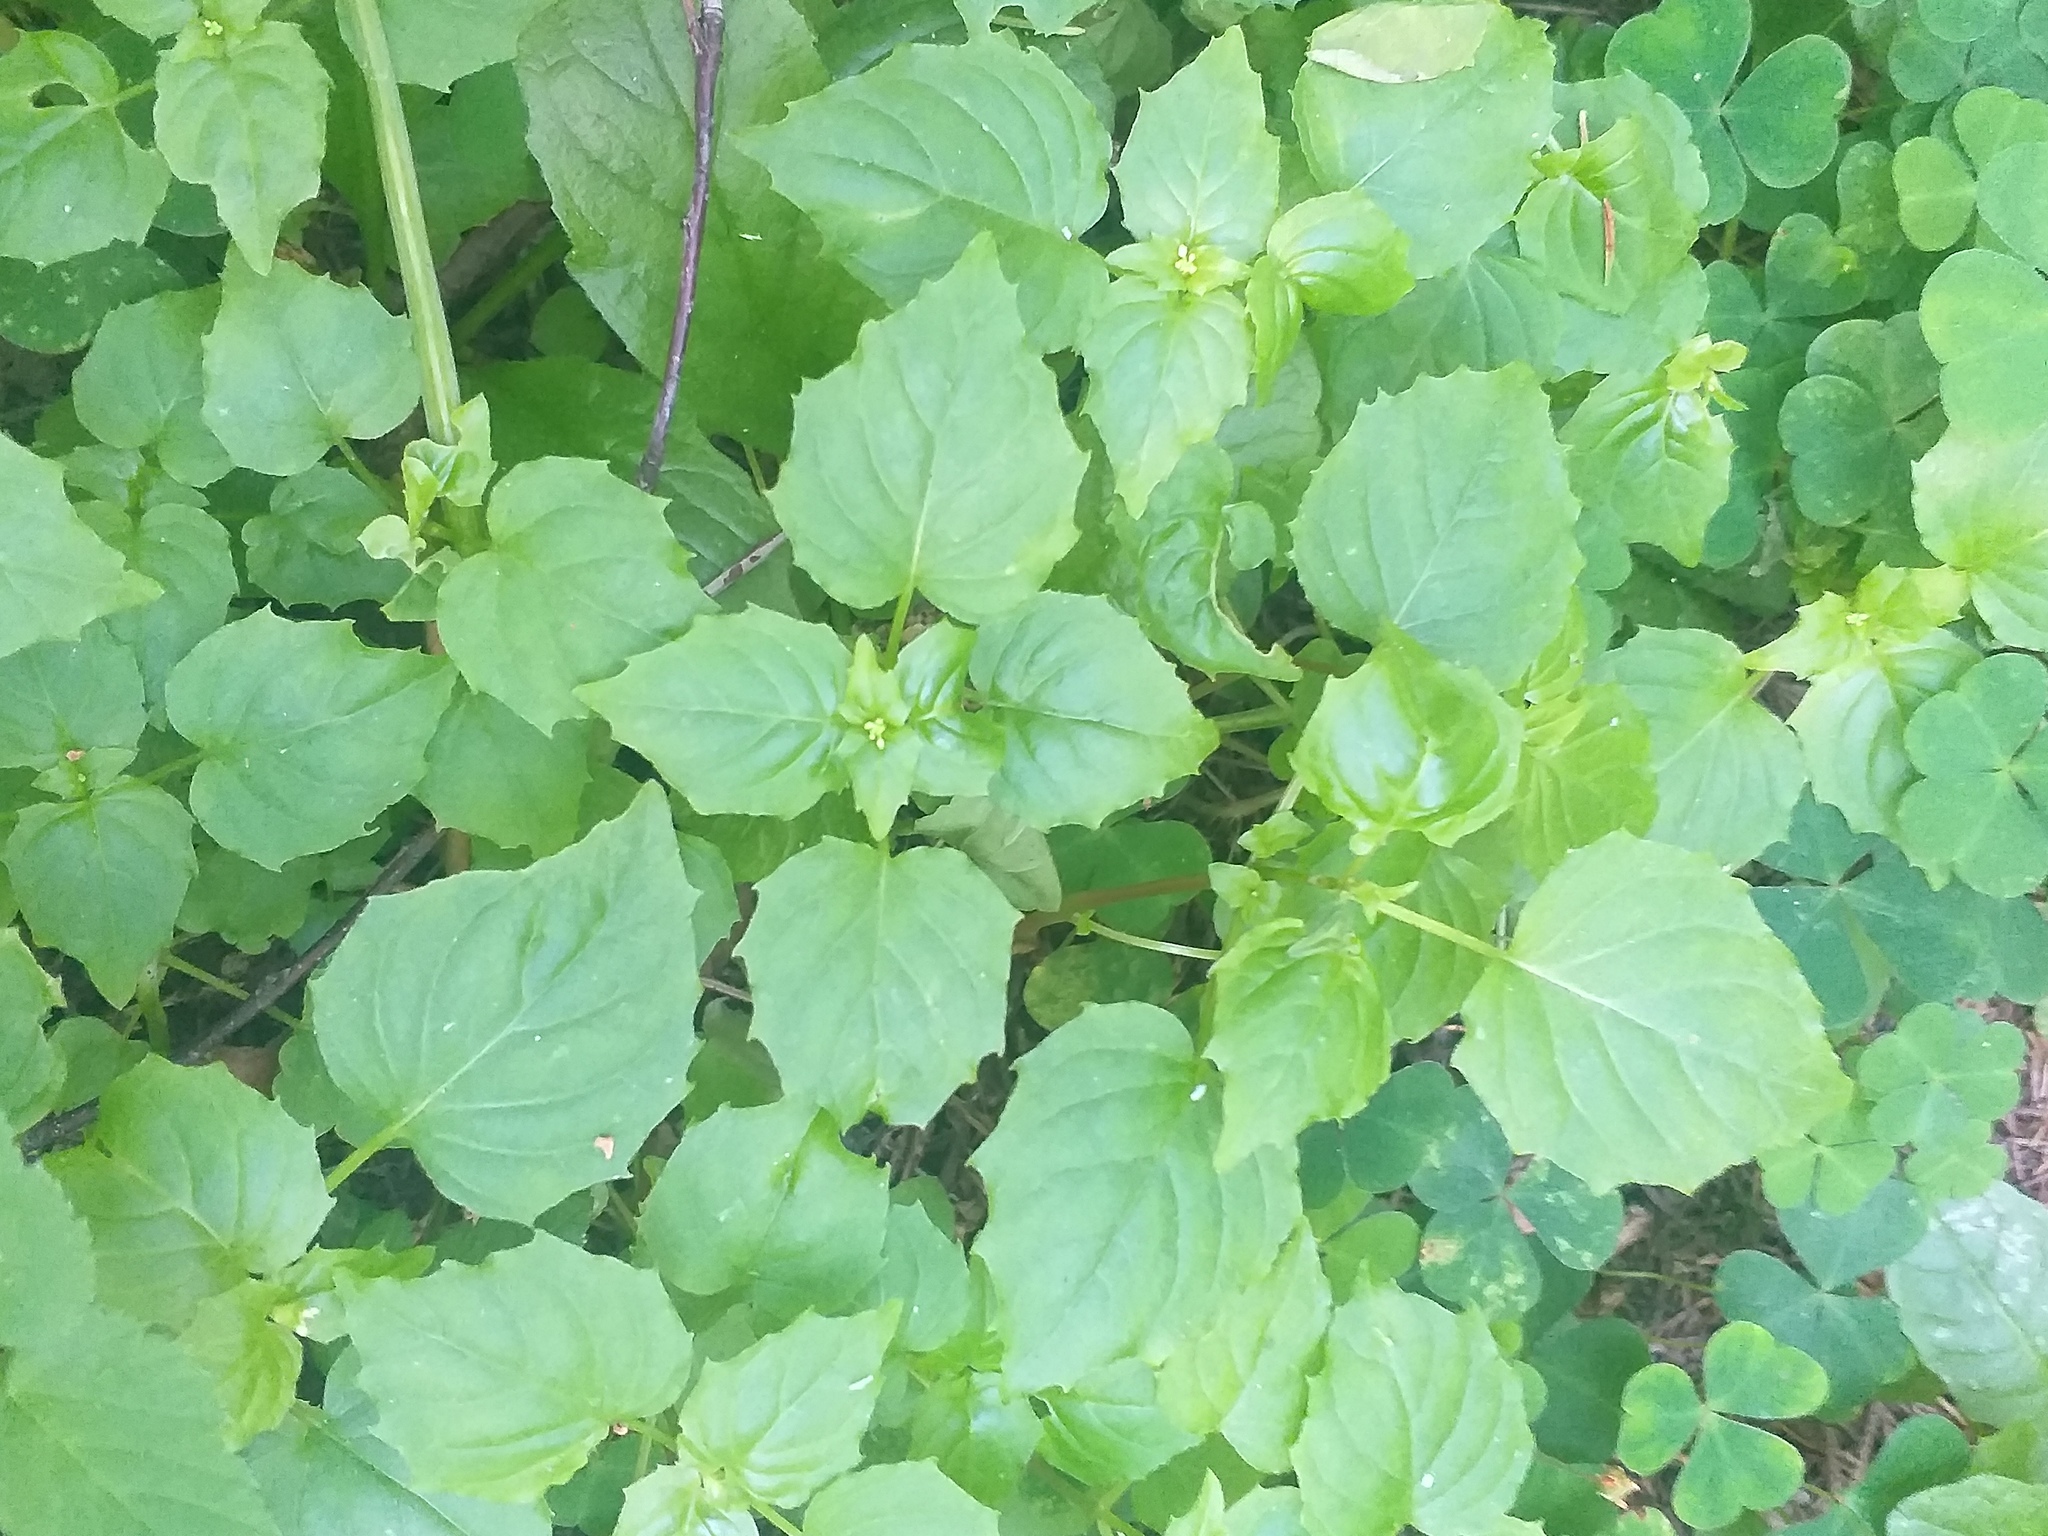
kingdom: Plantae
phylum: Tracheophyta
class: Magnoliopsida
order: Myrtales
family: Onagraceae
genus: Circaea
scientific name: Circaea alpina
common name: Alpine enchanter's-nightshade
